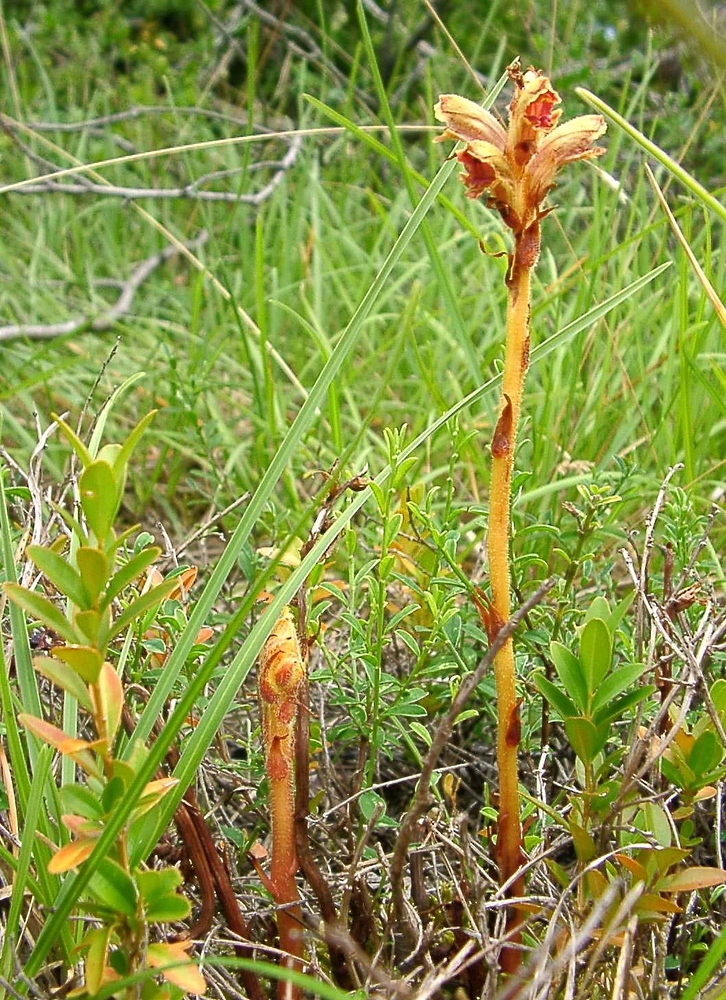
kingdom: Plantae
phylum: Tracheophyta
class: Magnoliopsida
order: Lamiales
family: Orobanchaceae
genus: Orobanche
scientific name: Orobanche gracilis
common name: Slender broomrape
